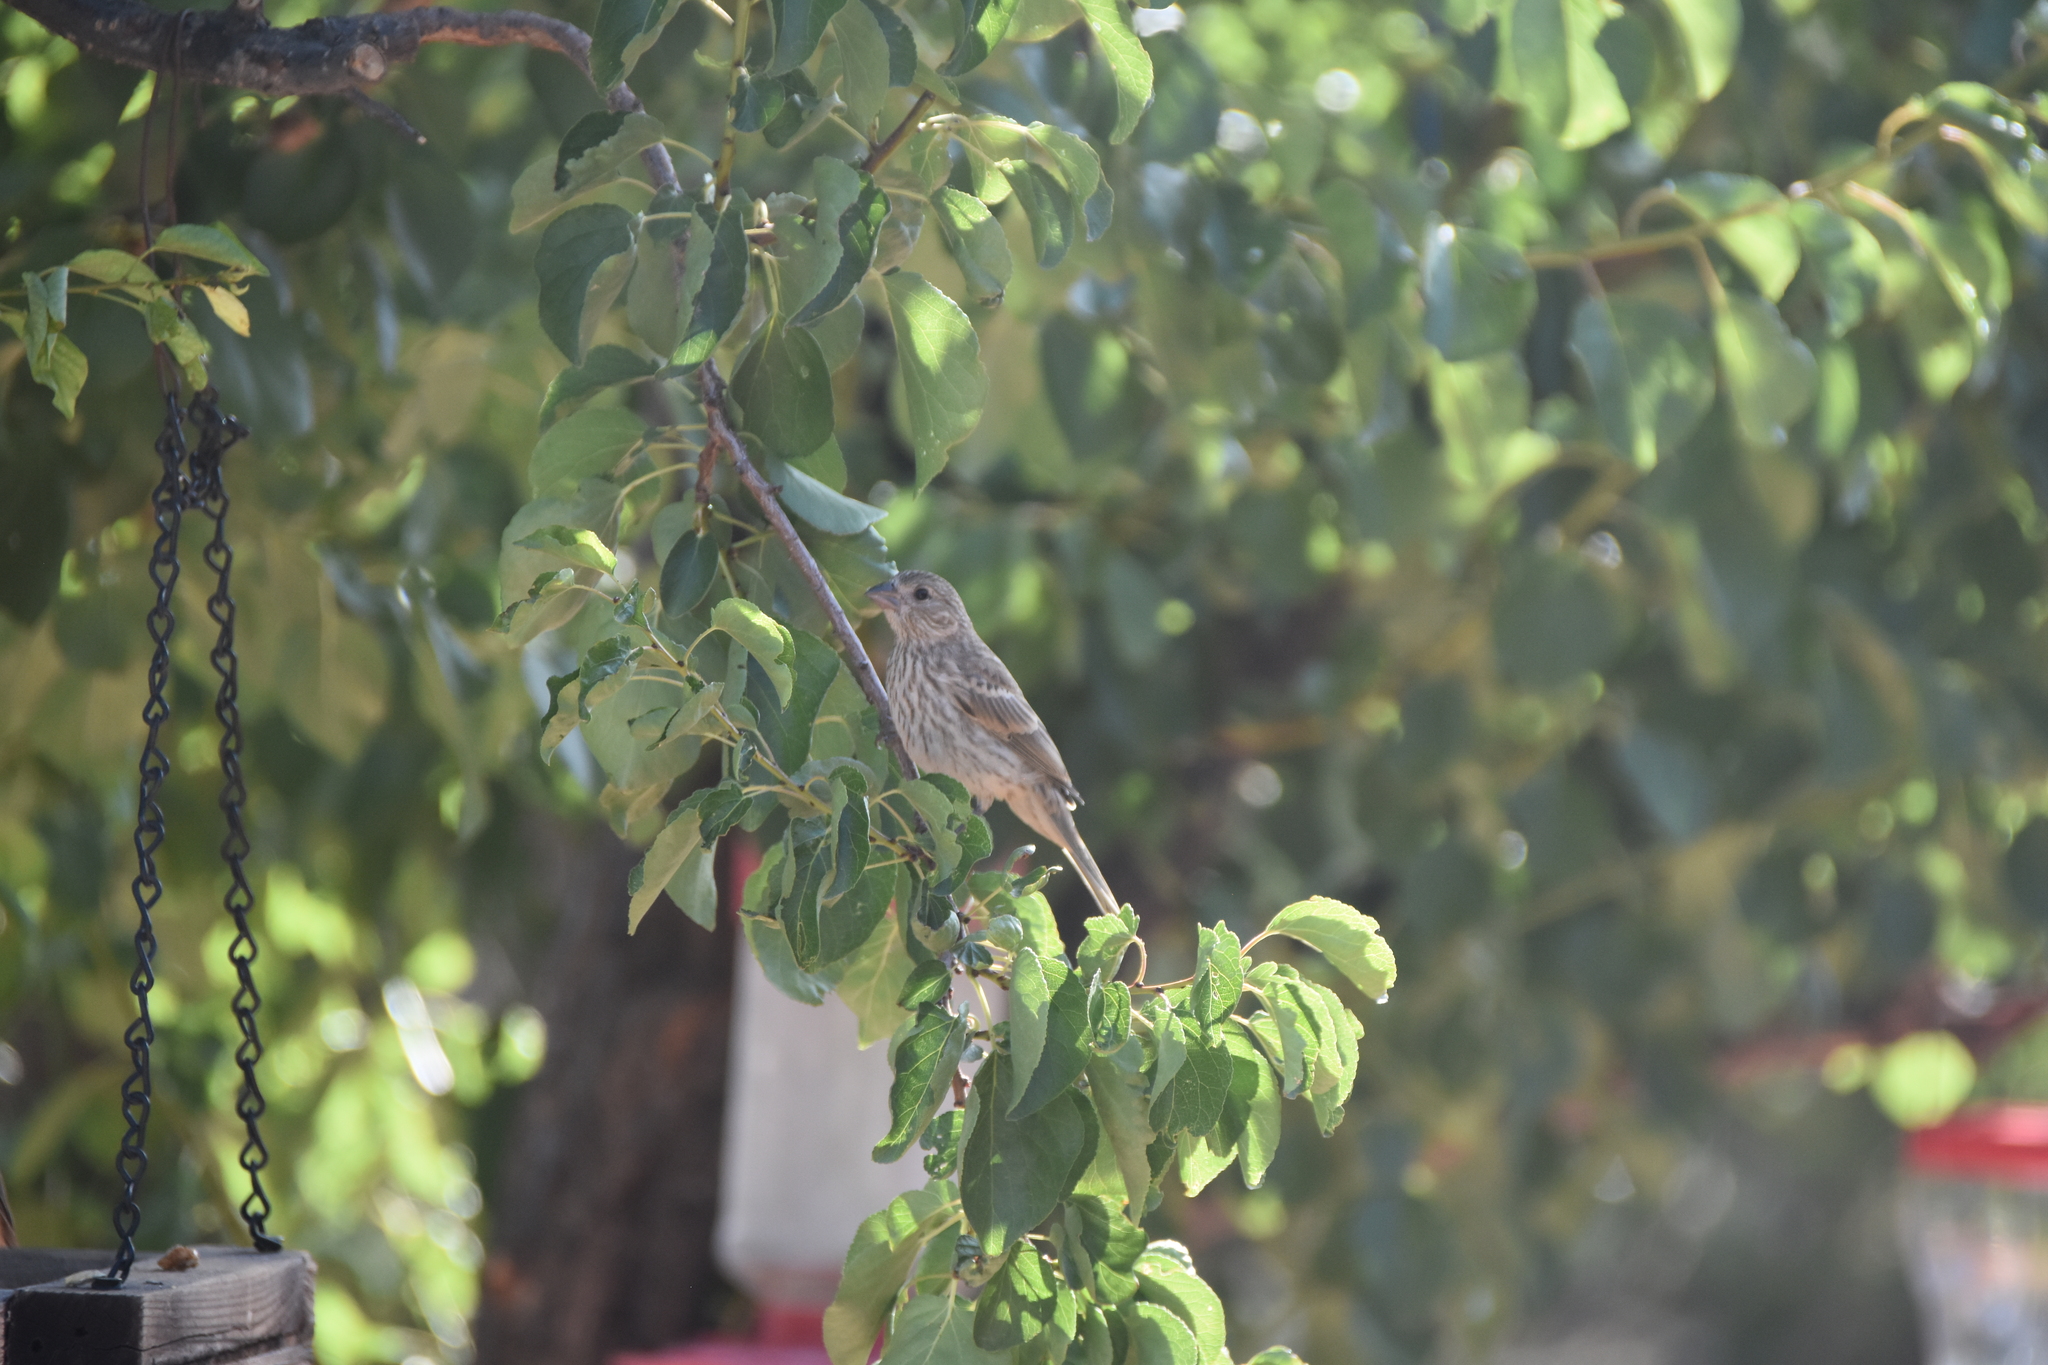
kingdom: Animalia
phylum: Chordata
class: Aves
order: Passeriformes
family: Fringillidae
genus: Haemorhous
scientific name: Haemorhous mexicanus
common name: House finch
